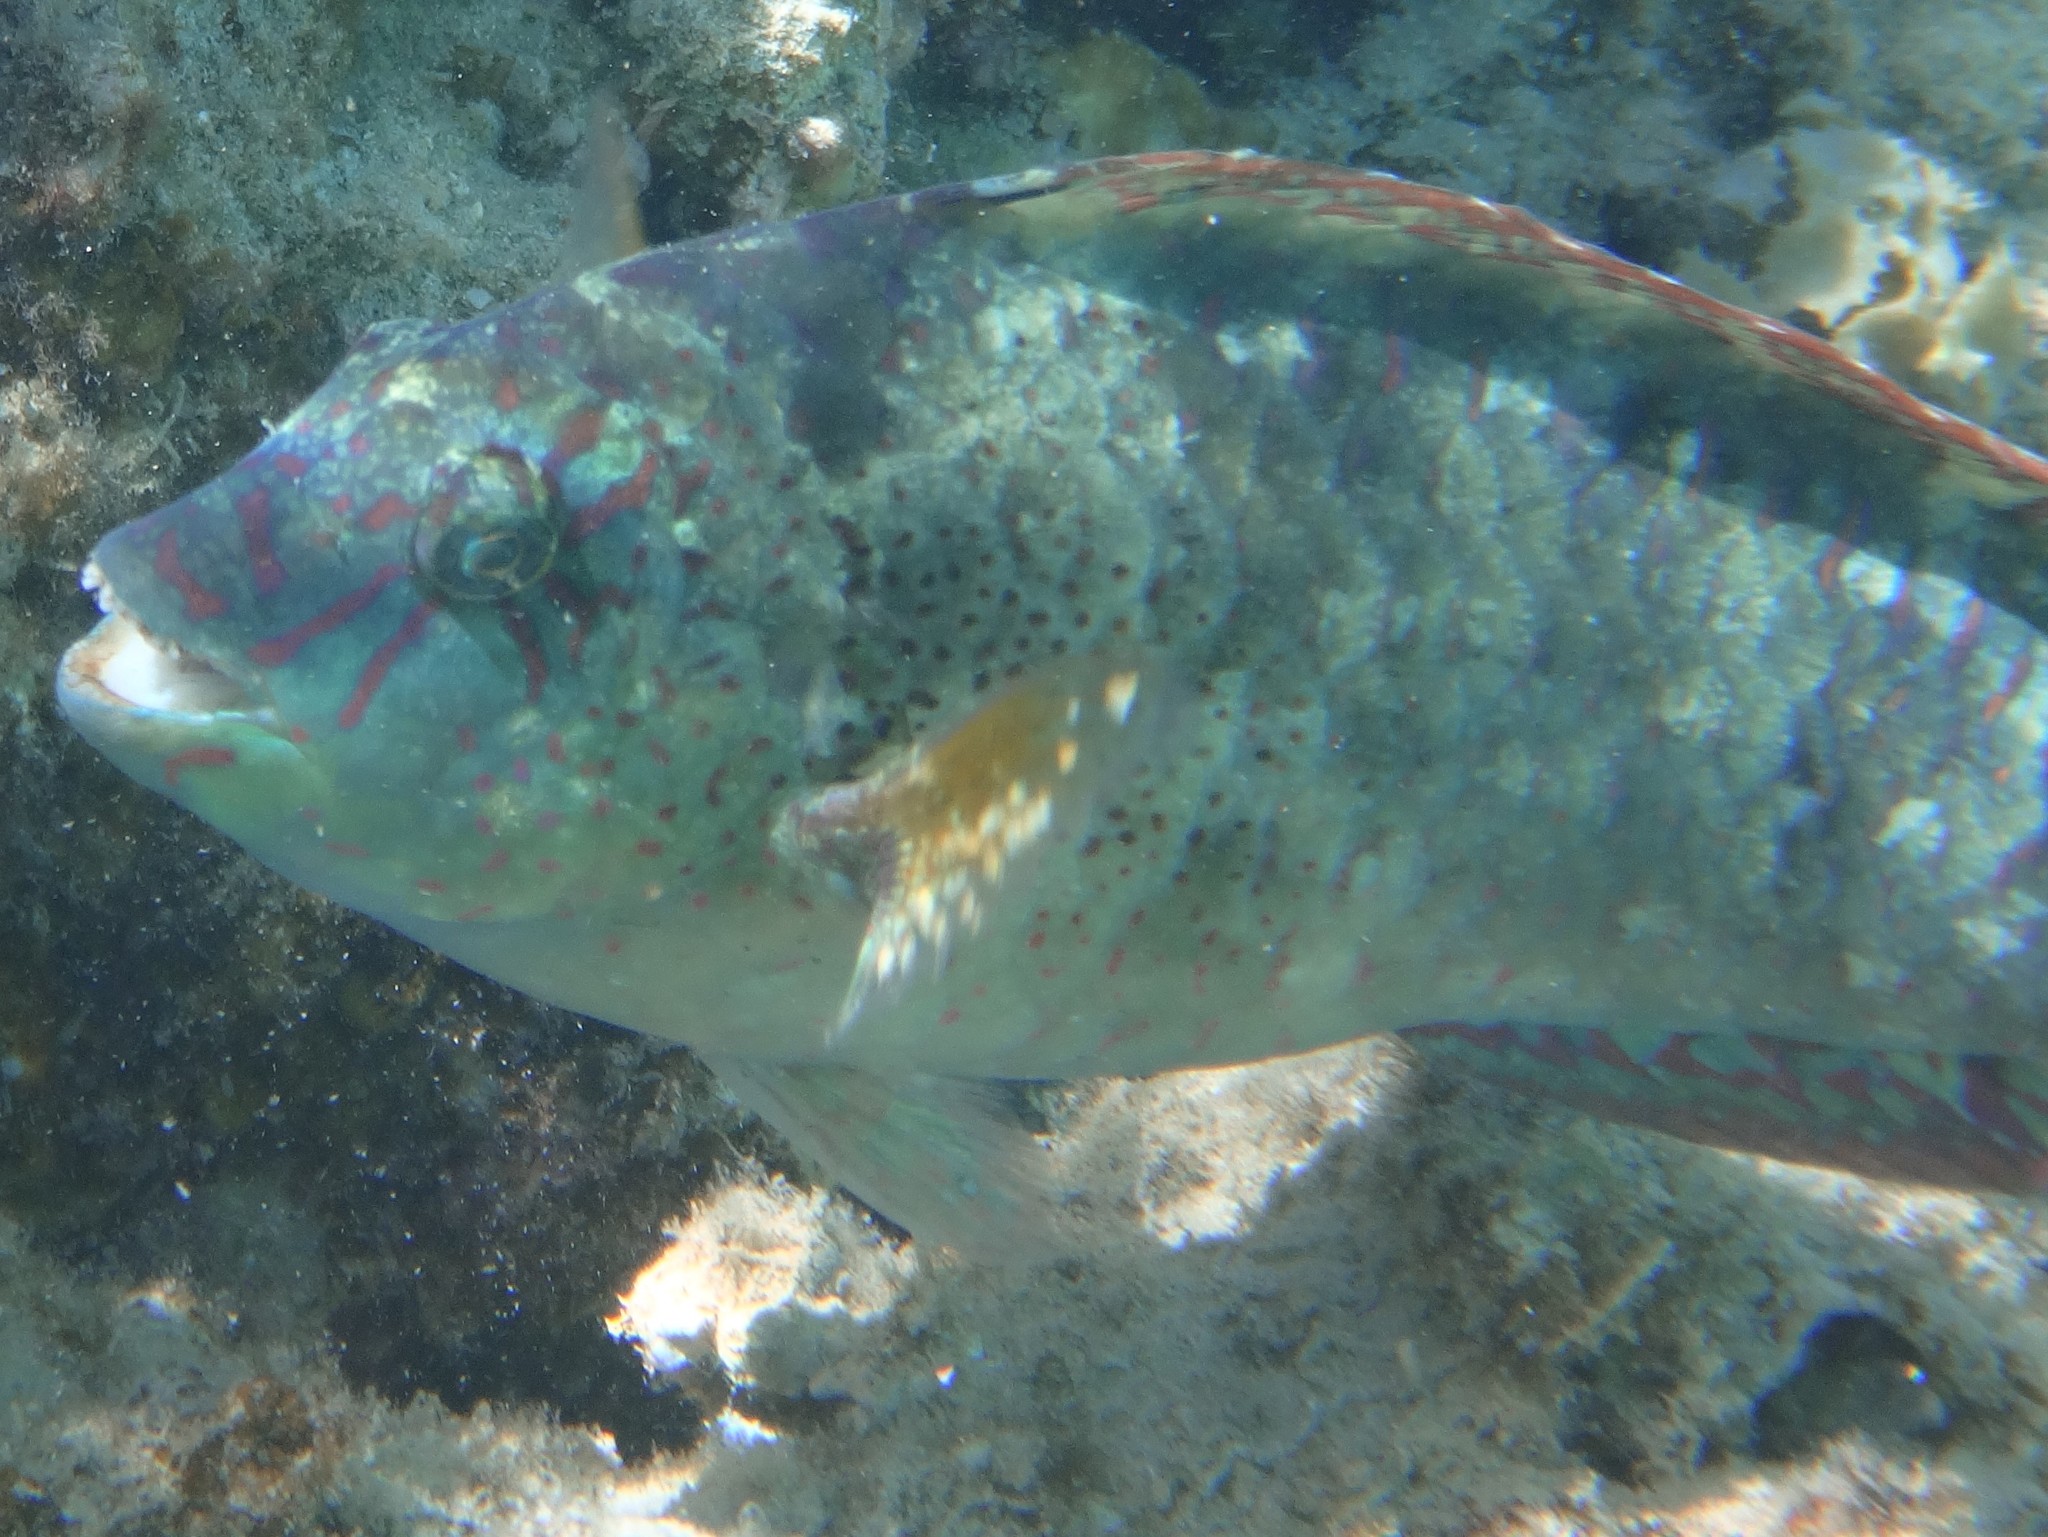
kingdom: Animalia
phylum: Chordata
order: Perciformes
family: Scaridae
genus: Calotomus
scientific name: Calotomus viridescens
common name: Dotted parrotfish
